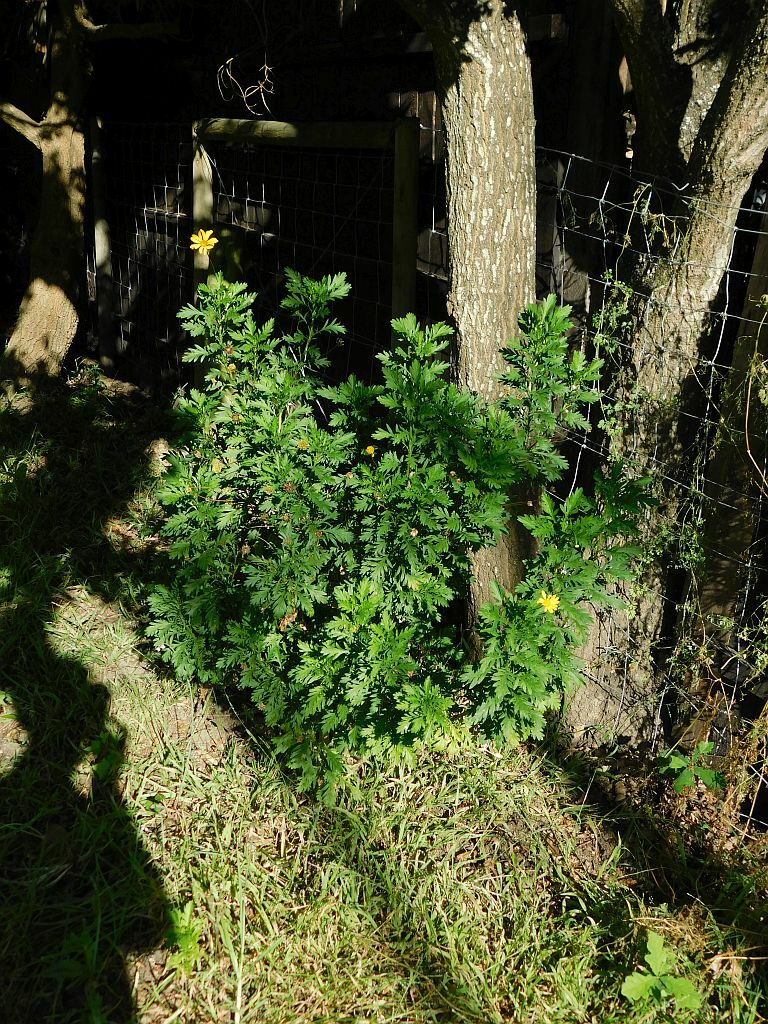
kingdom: Plantae
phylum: Tracheophyta
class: Magnoliopsida
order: Asterales
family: Asteraceae
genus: Euryops
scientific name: Euryops chrysanthemoides
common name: Bull's eye
